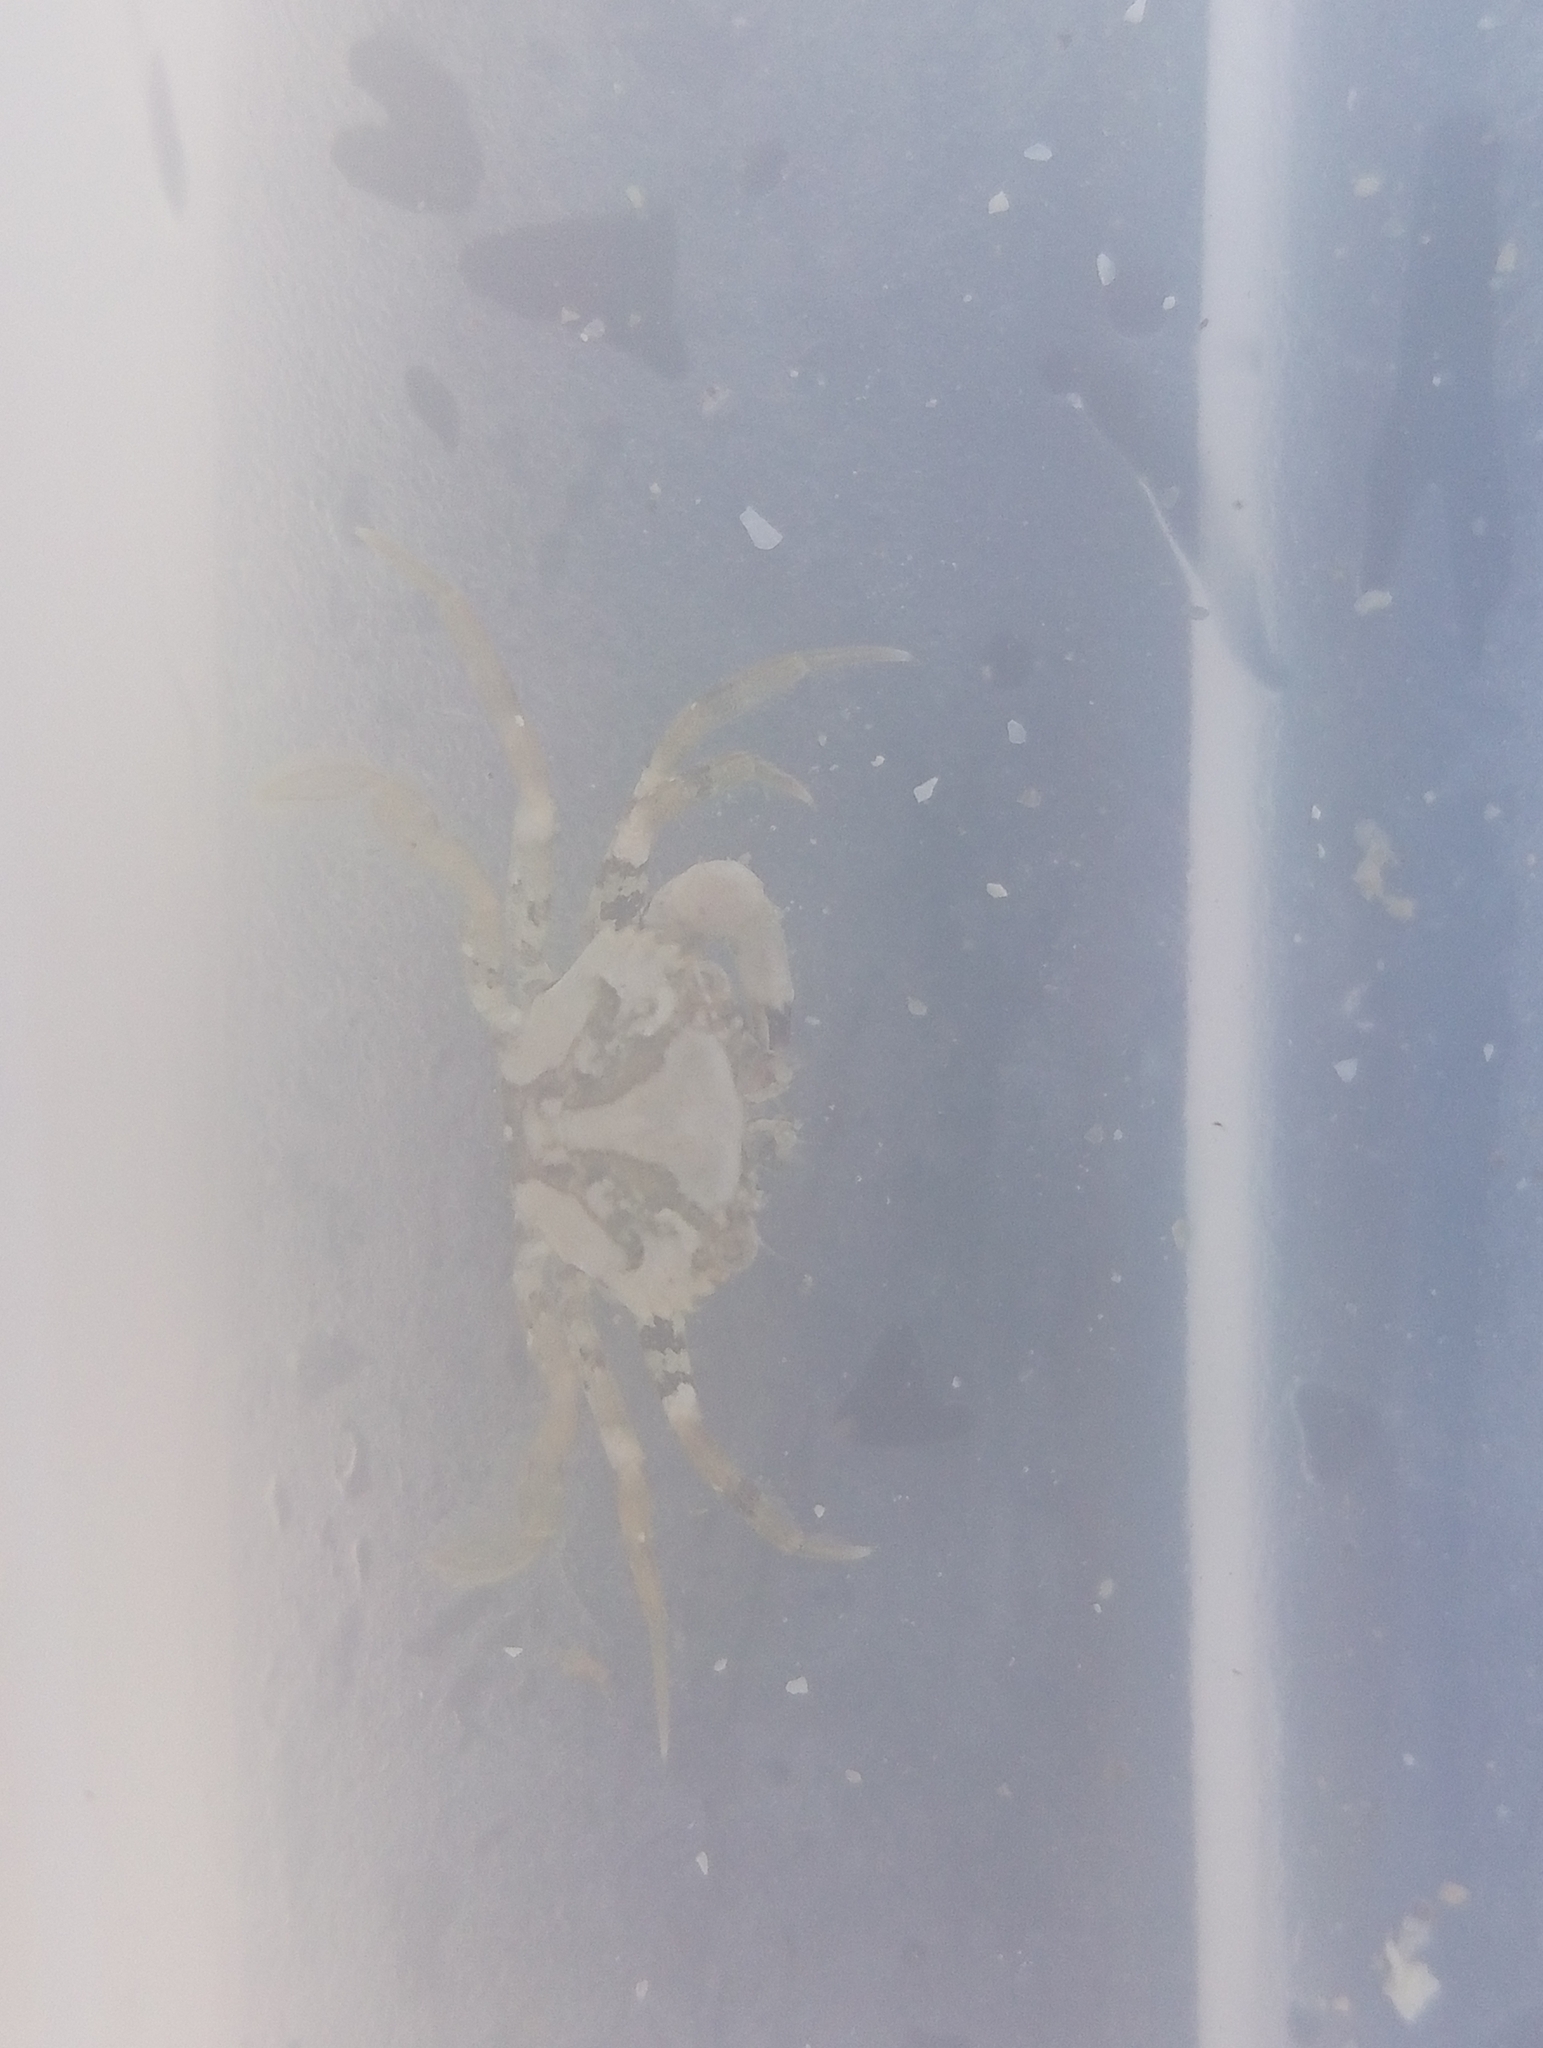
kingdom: Animalia
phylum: Arthropoda
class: Malacostraca
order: Decapoda
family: Carcinidae
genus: Carcinus
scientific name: Carcinus maenas
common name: European green crab
